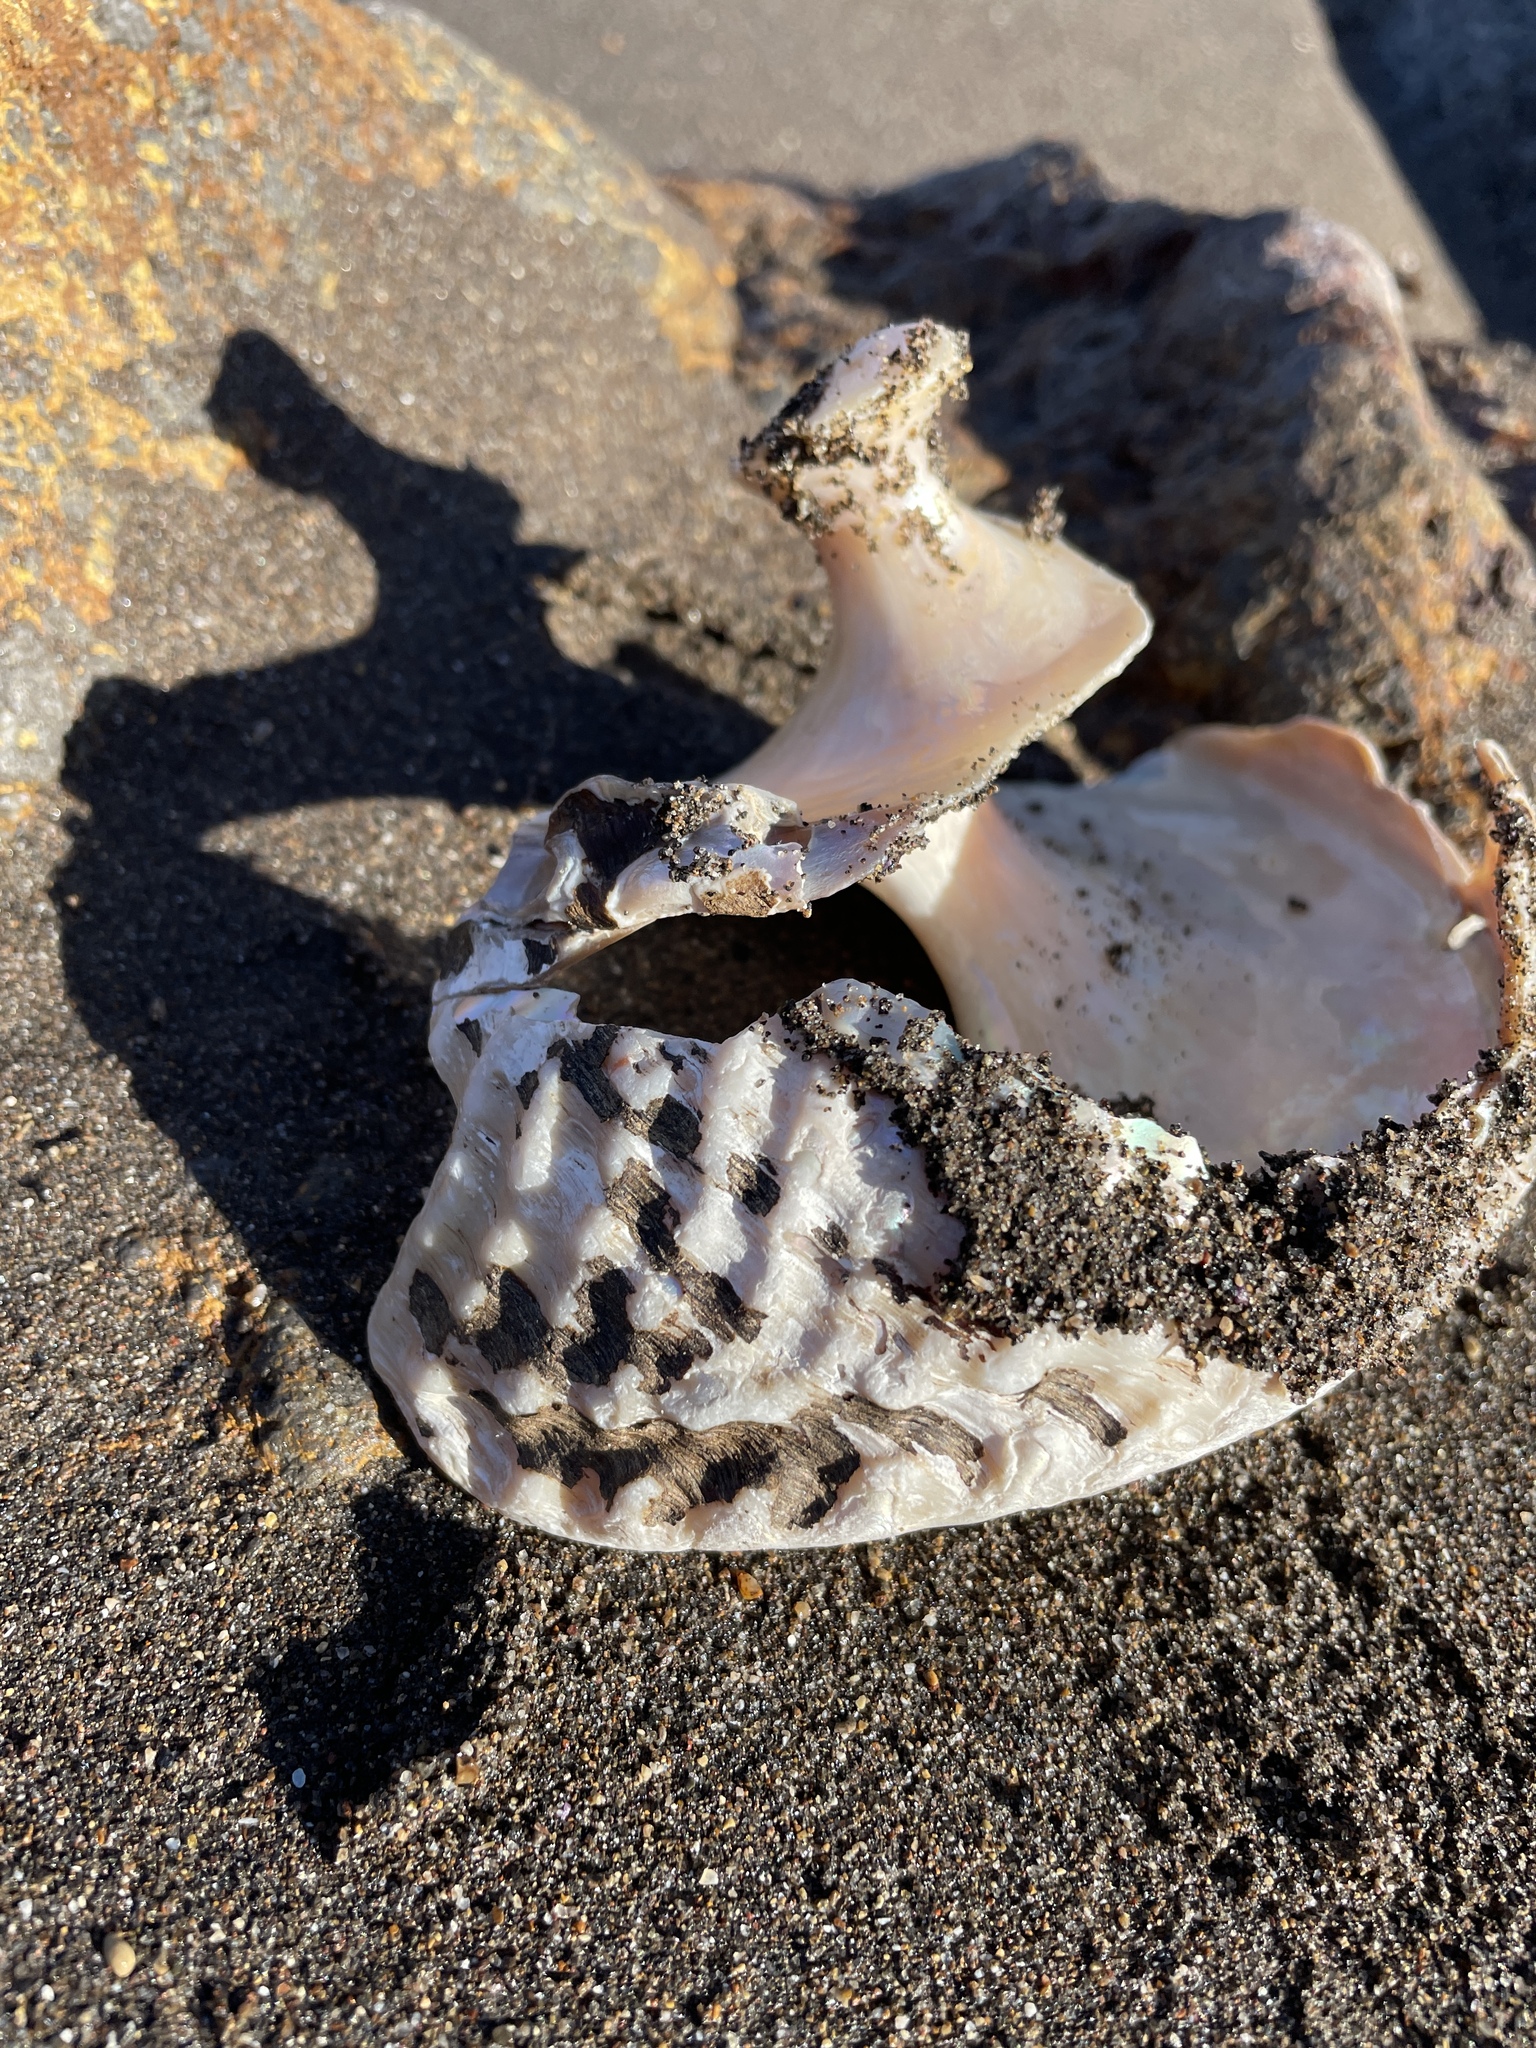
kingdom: Animalia
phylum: Mollusca
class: Gastropoda
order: Trochida
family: Turbinidae
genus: Megastraea
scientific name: Megastraea undosa
